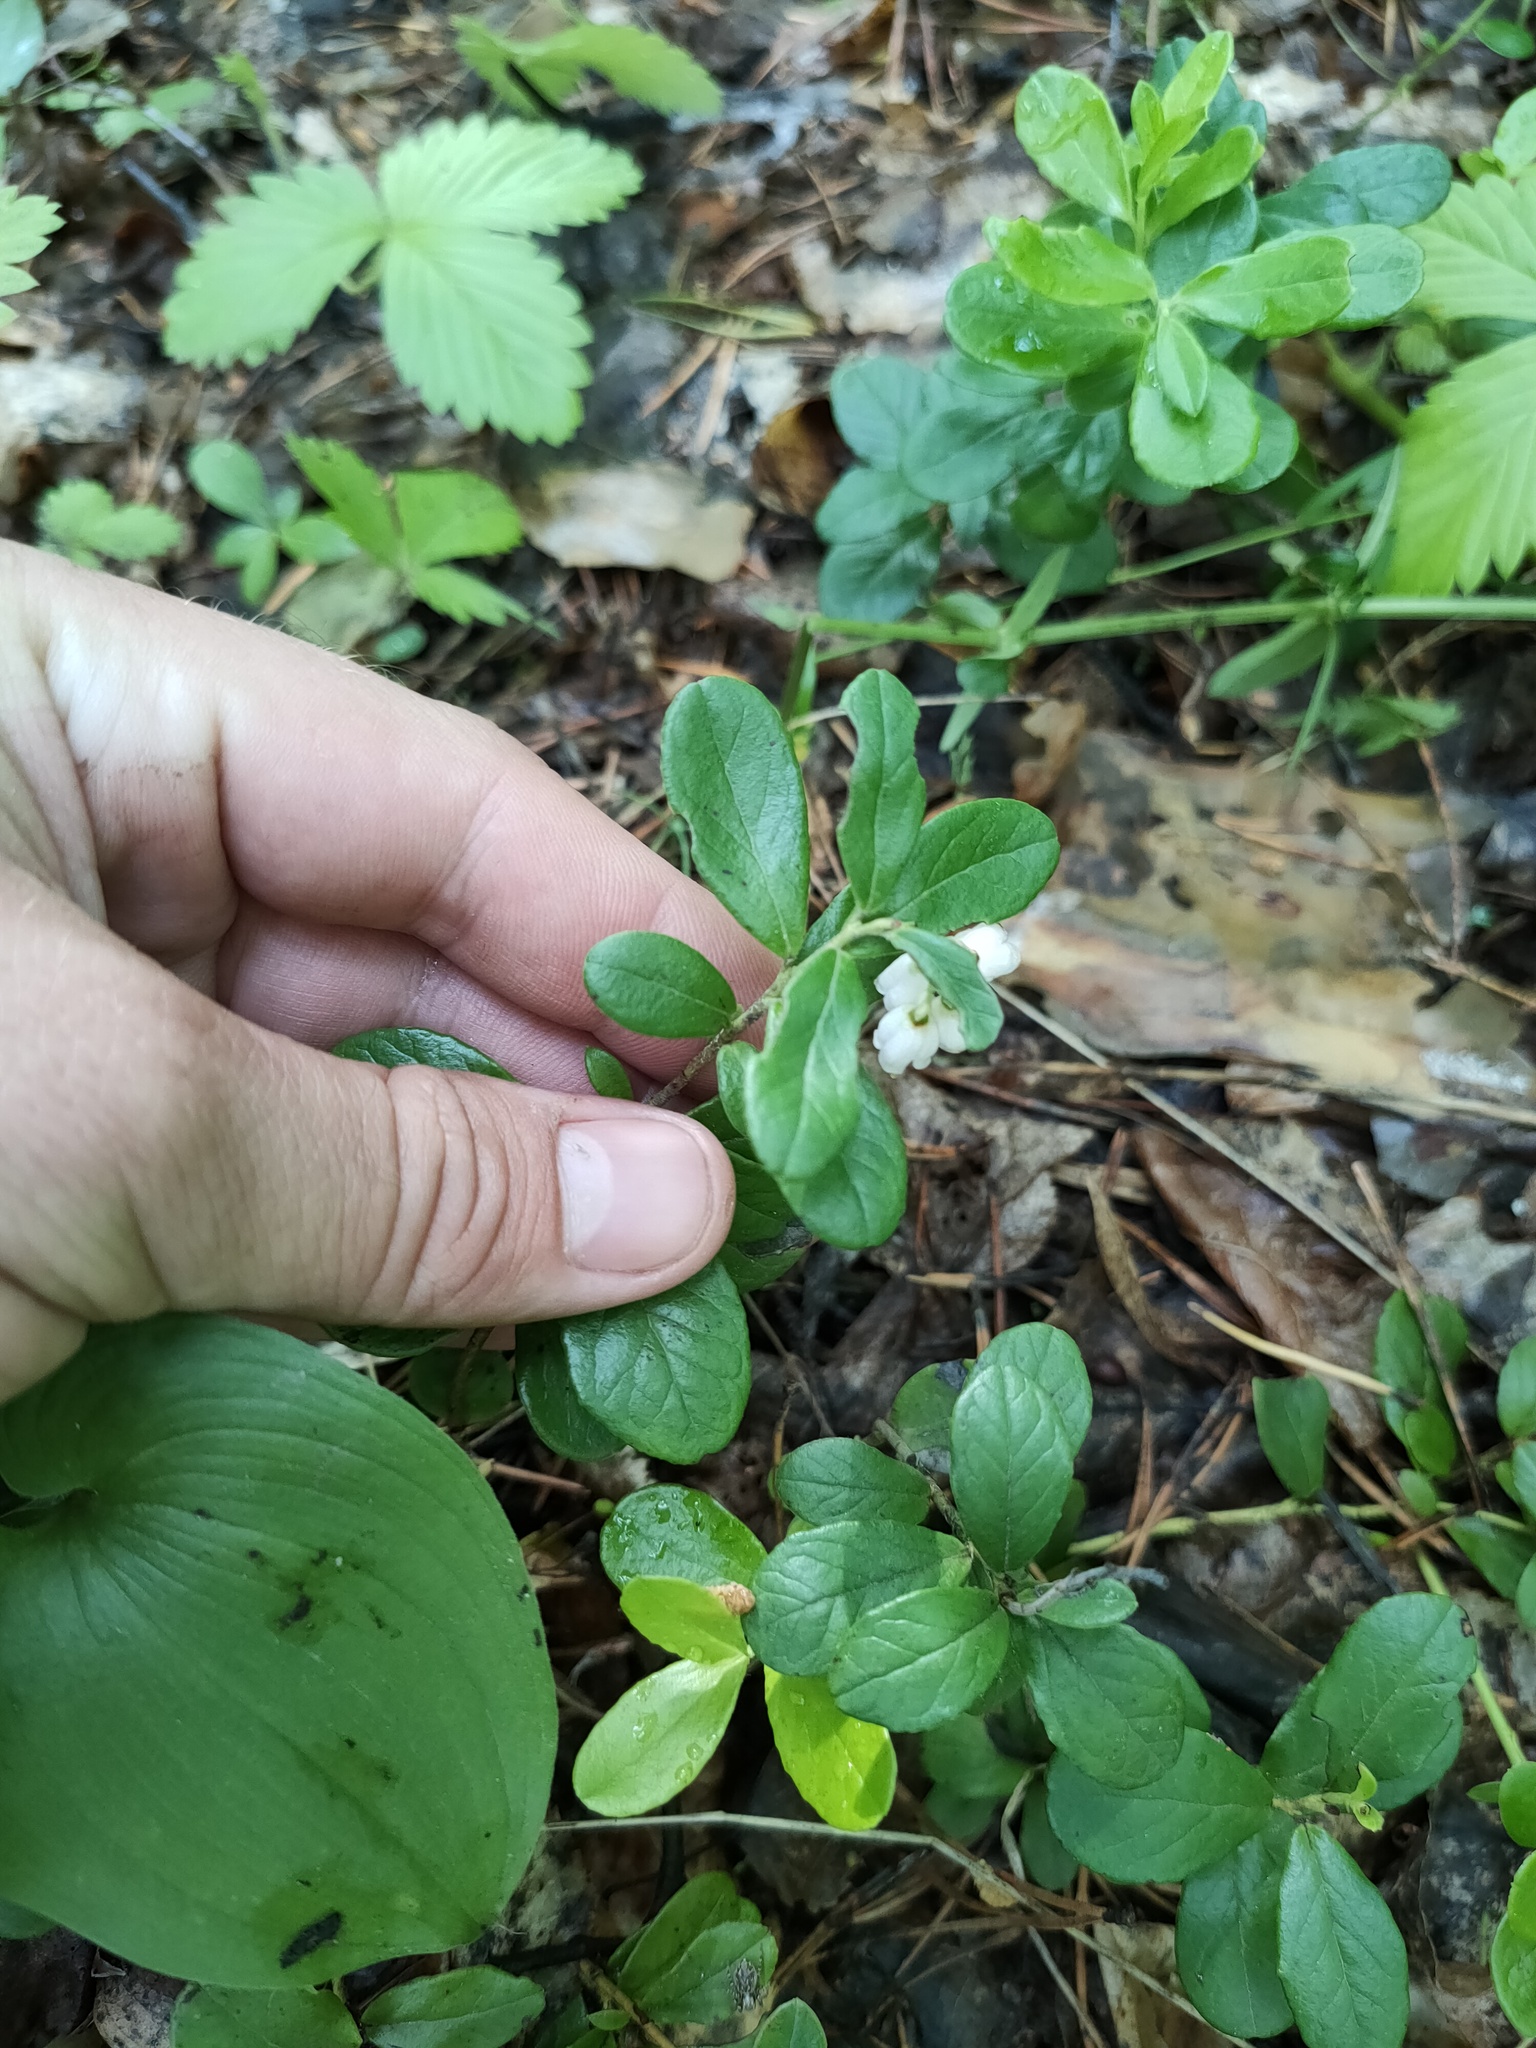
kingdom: Plantae
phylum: Tracheophyta
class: Magnoliopsida
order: Ericales
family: Ericaceae
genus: Vaccinium
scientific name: Vaccinium vitis-idaea
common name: Cowberry
